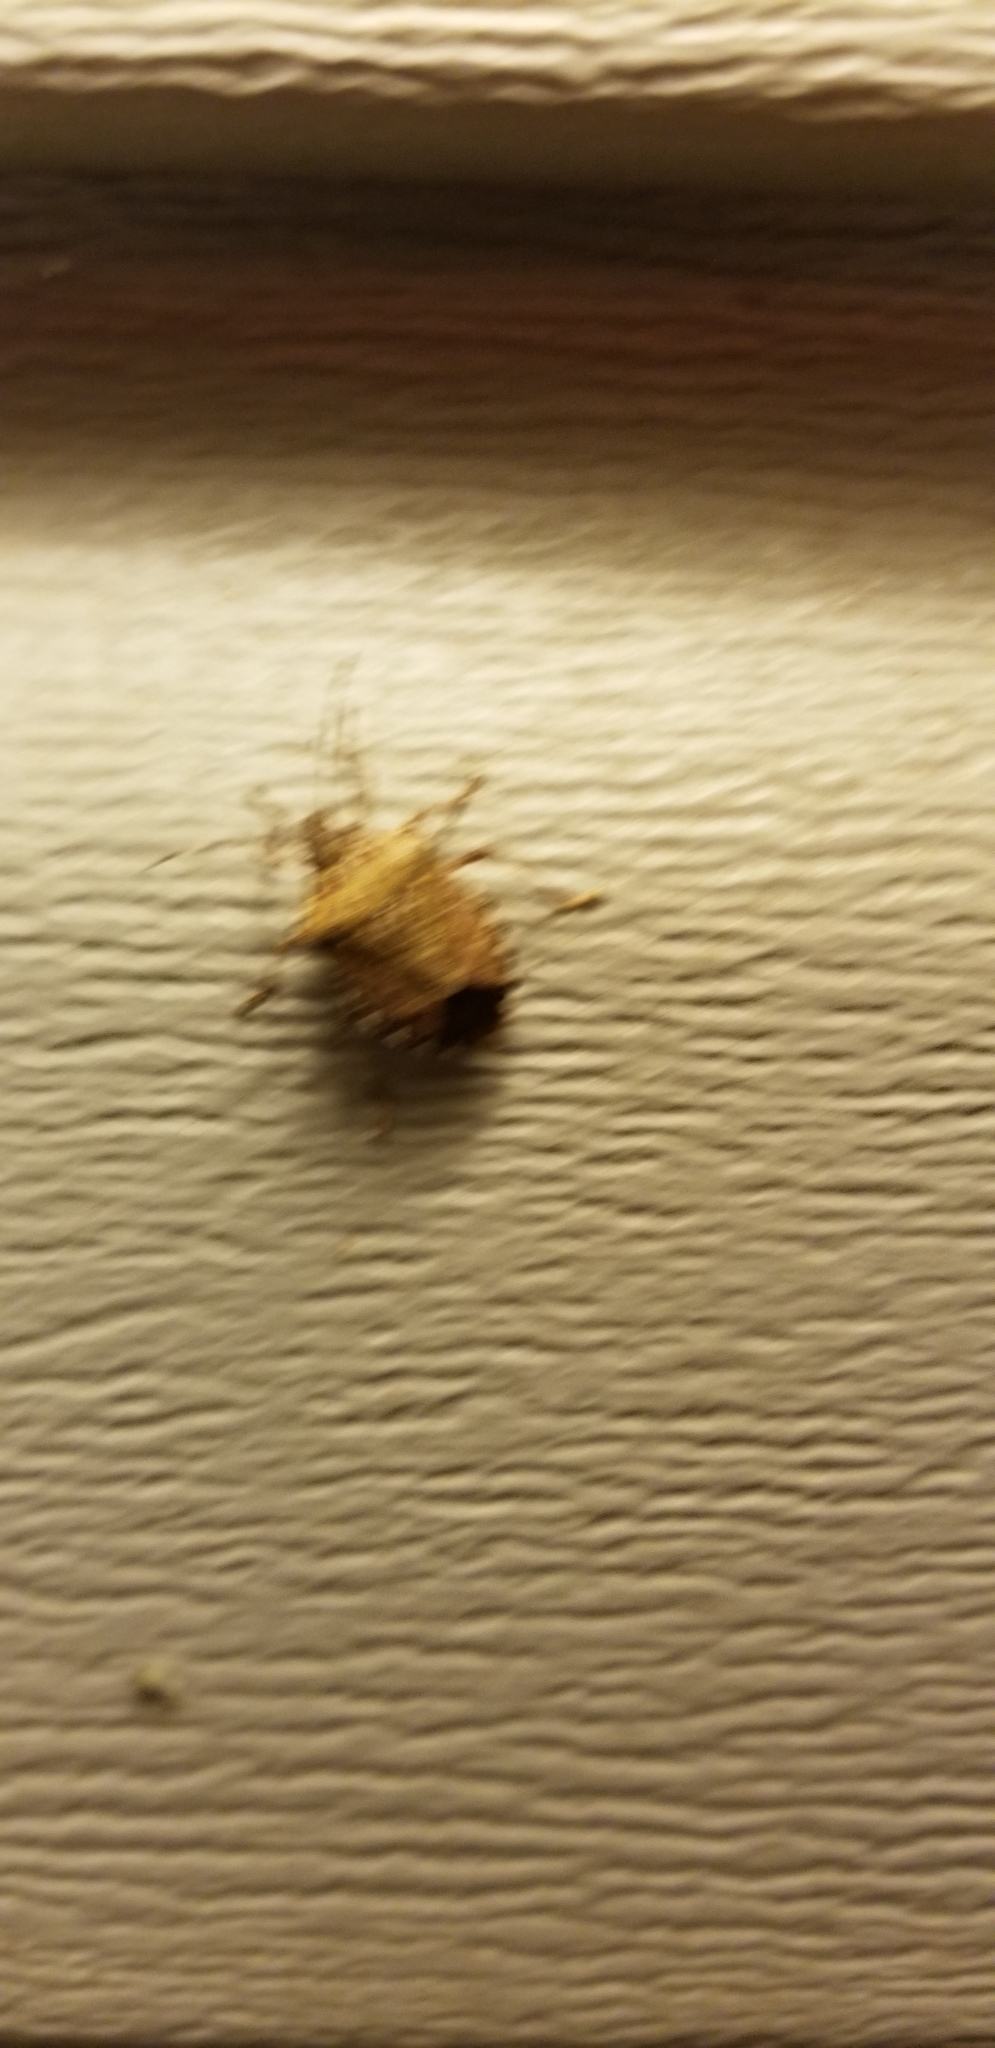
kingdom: Animalia
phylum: Arthropoda
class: Insecta
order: Hemiptera
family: Pentatomidae
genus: Halyomorpha
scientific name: Halyomorpha halys
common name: Brown marmorated stink bug
